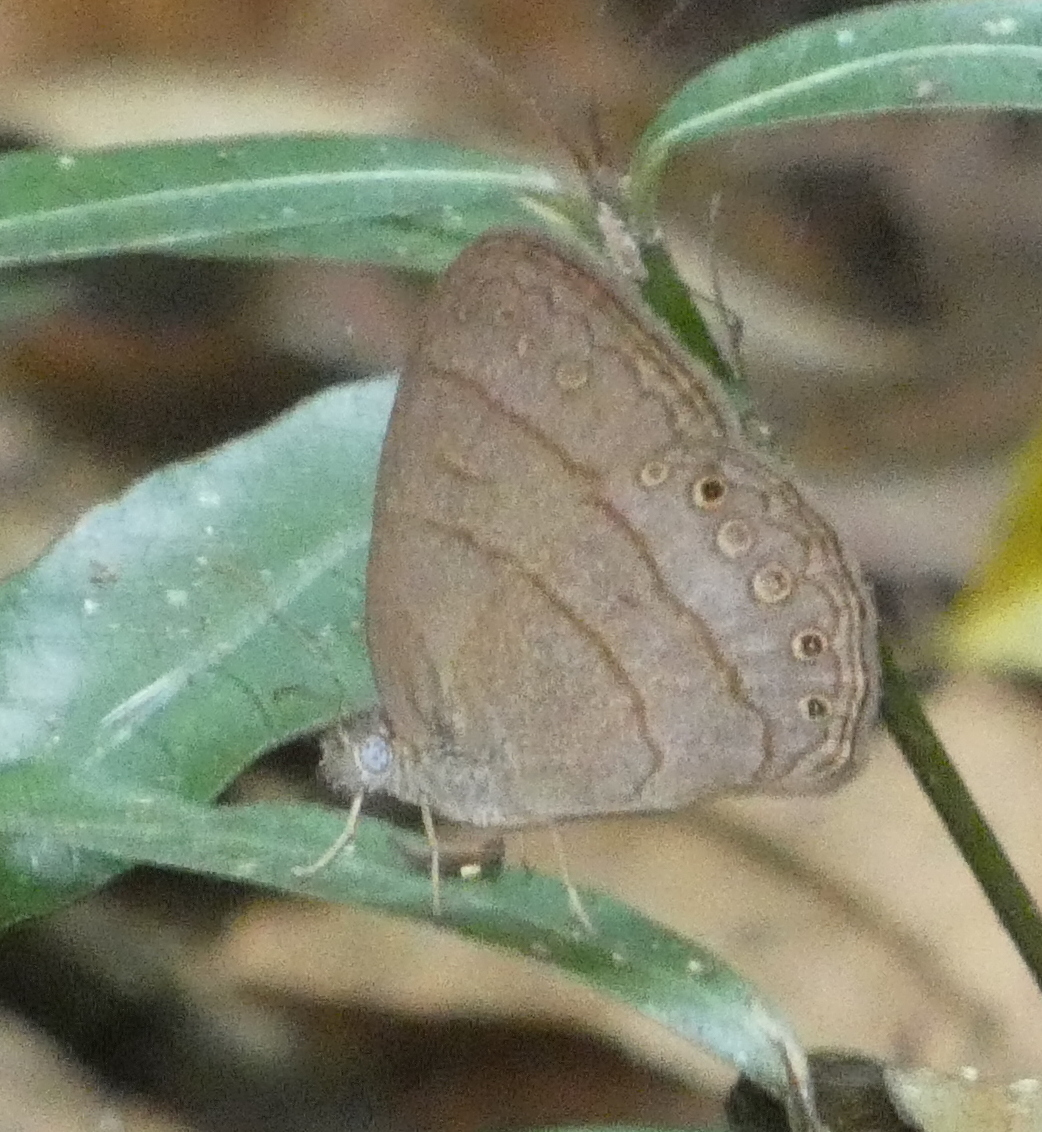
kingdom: Animalia
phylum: Arthropoda
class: Insecta
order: Lepidoptera
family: Nymphalidae
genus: Hermeuptychia
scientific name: Hermeuptychia hermes
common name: Hermes satyr
